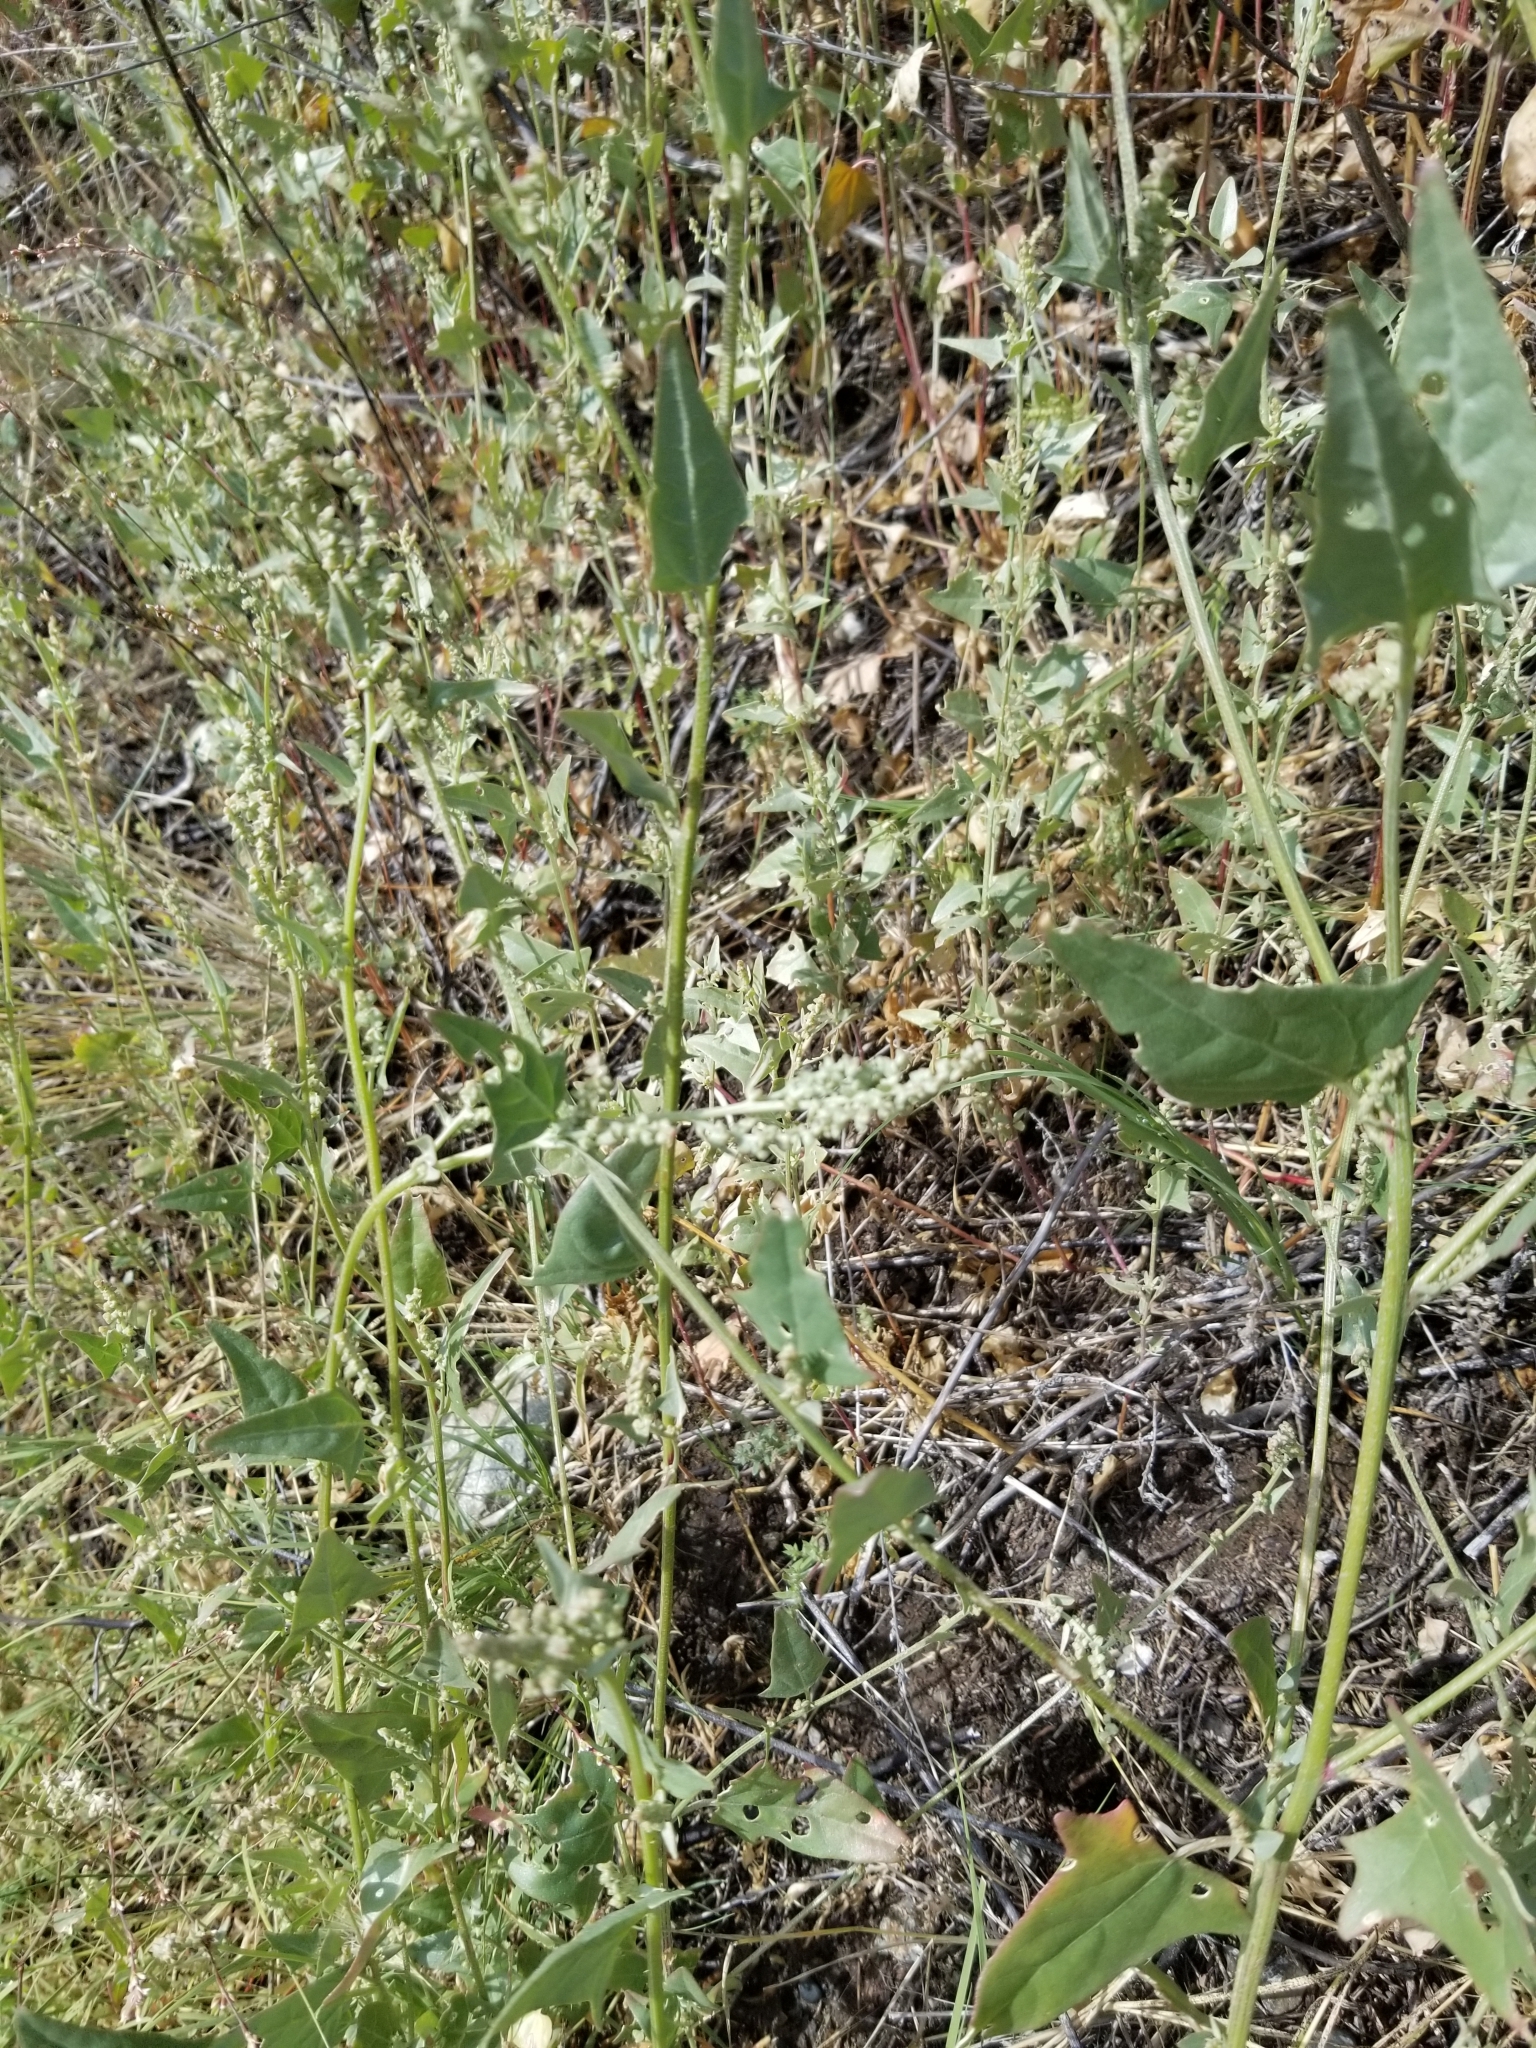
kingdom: Plantae
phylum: Tracheophyta
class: Magnoliopsida
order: Caryophyllales
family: Amaranthaceae
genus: Chenopodium
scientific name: Chenopodium album
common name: Fat-hen
